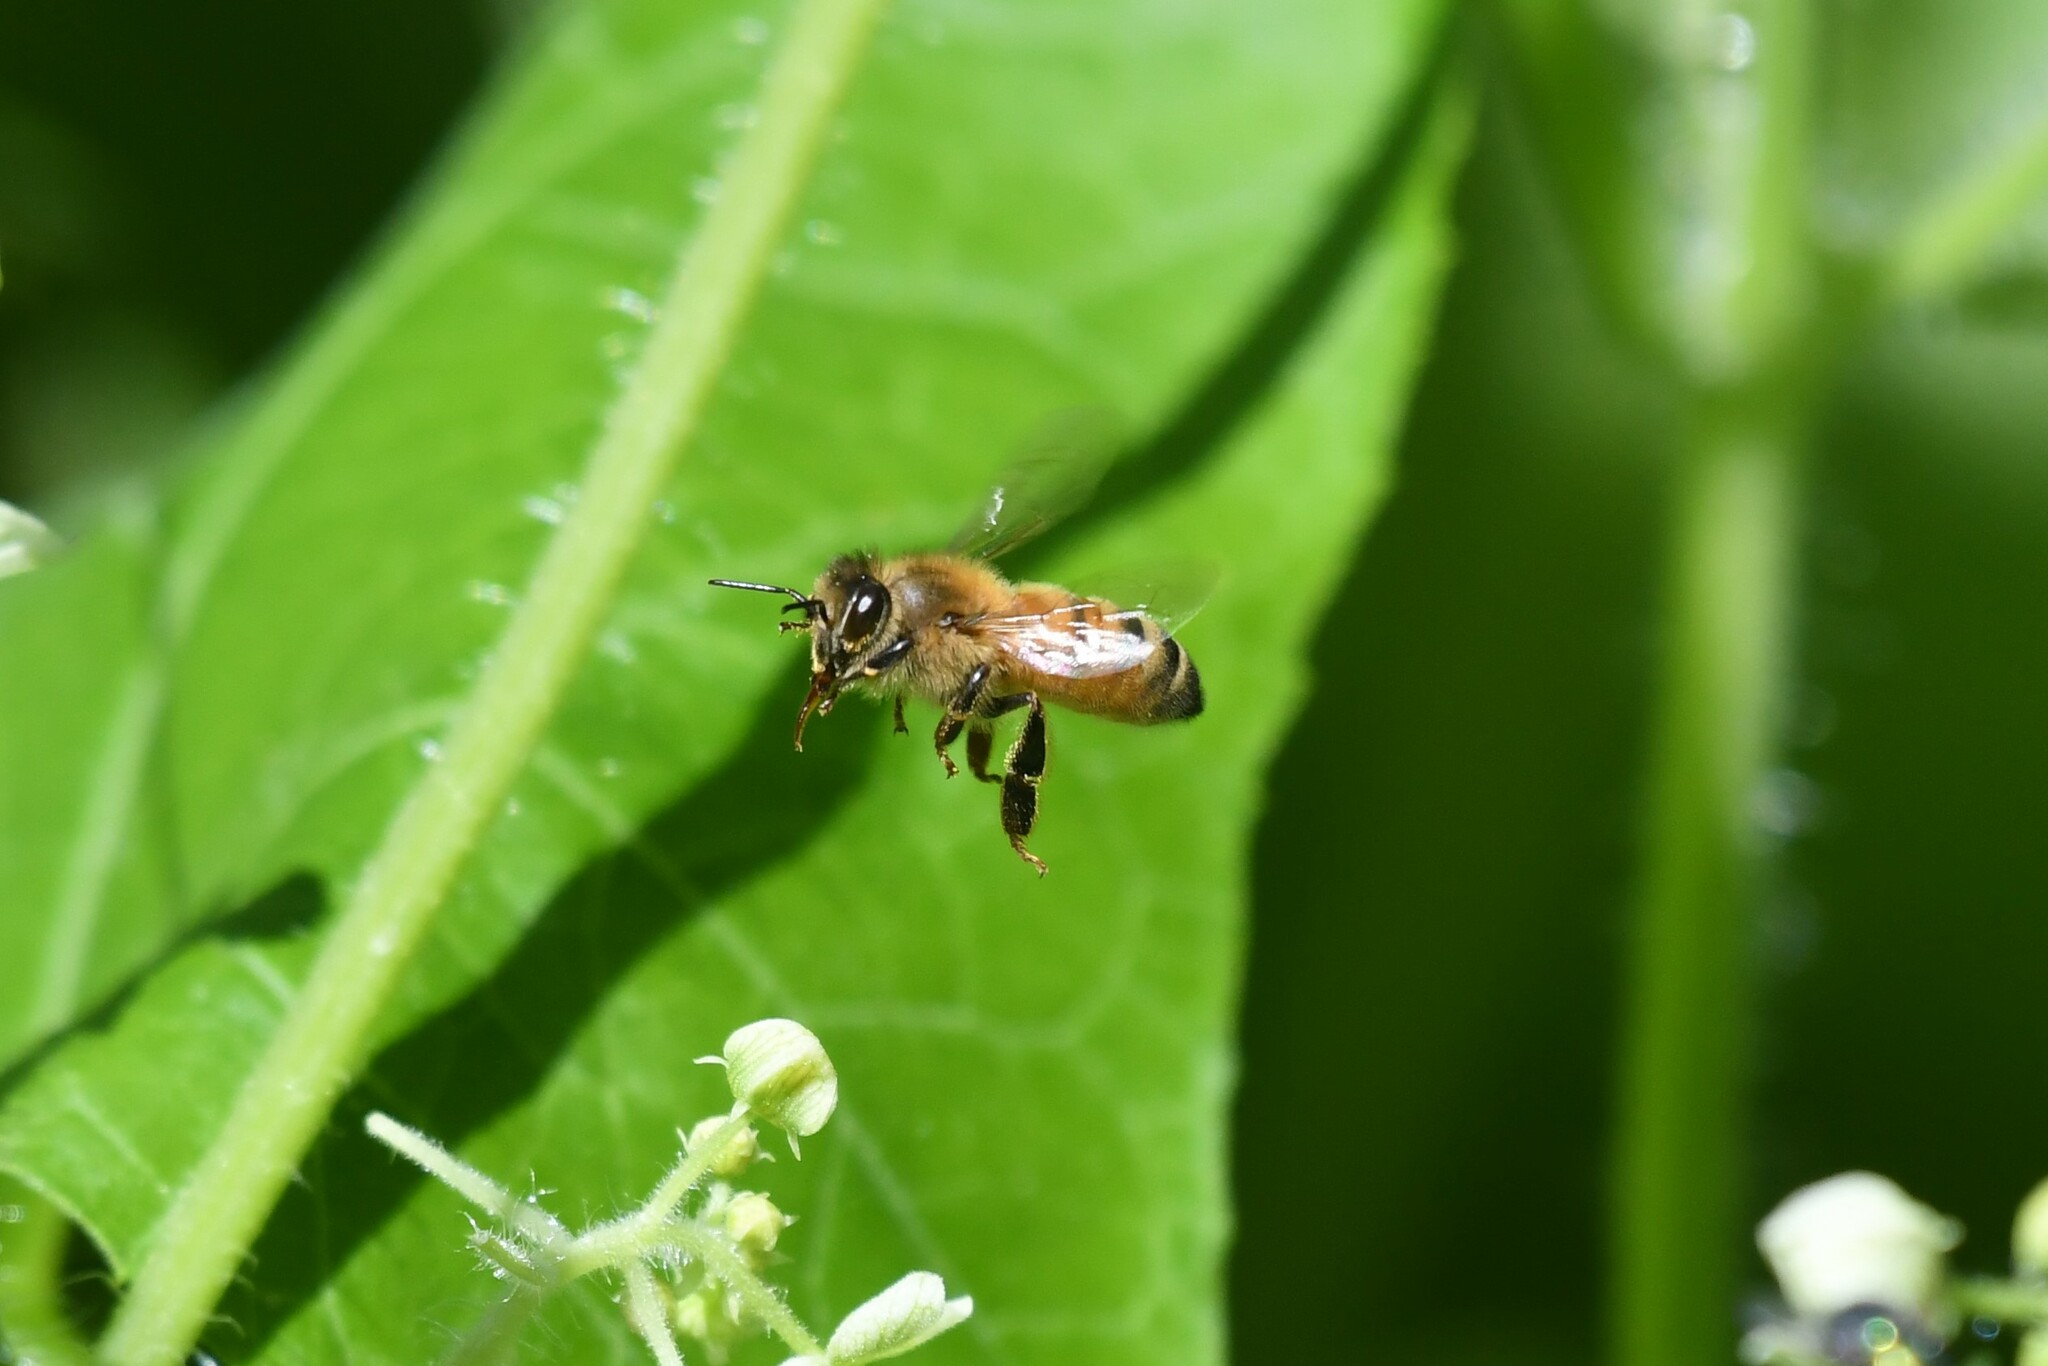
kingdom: Animalia
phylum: Arthropoda
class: Insecta
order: Hymenoptera
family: Apidae
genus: Apis
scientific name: Apis mellifera
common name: Honey bee
